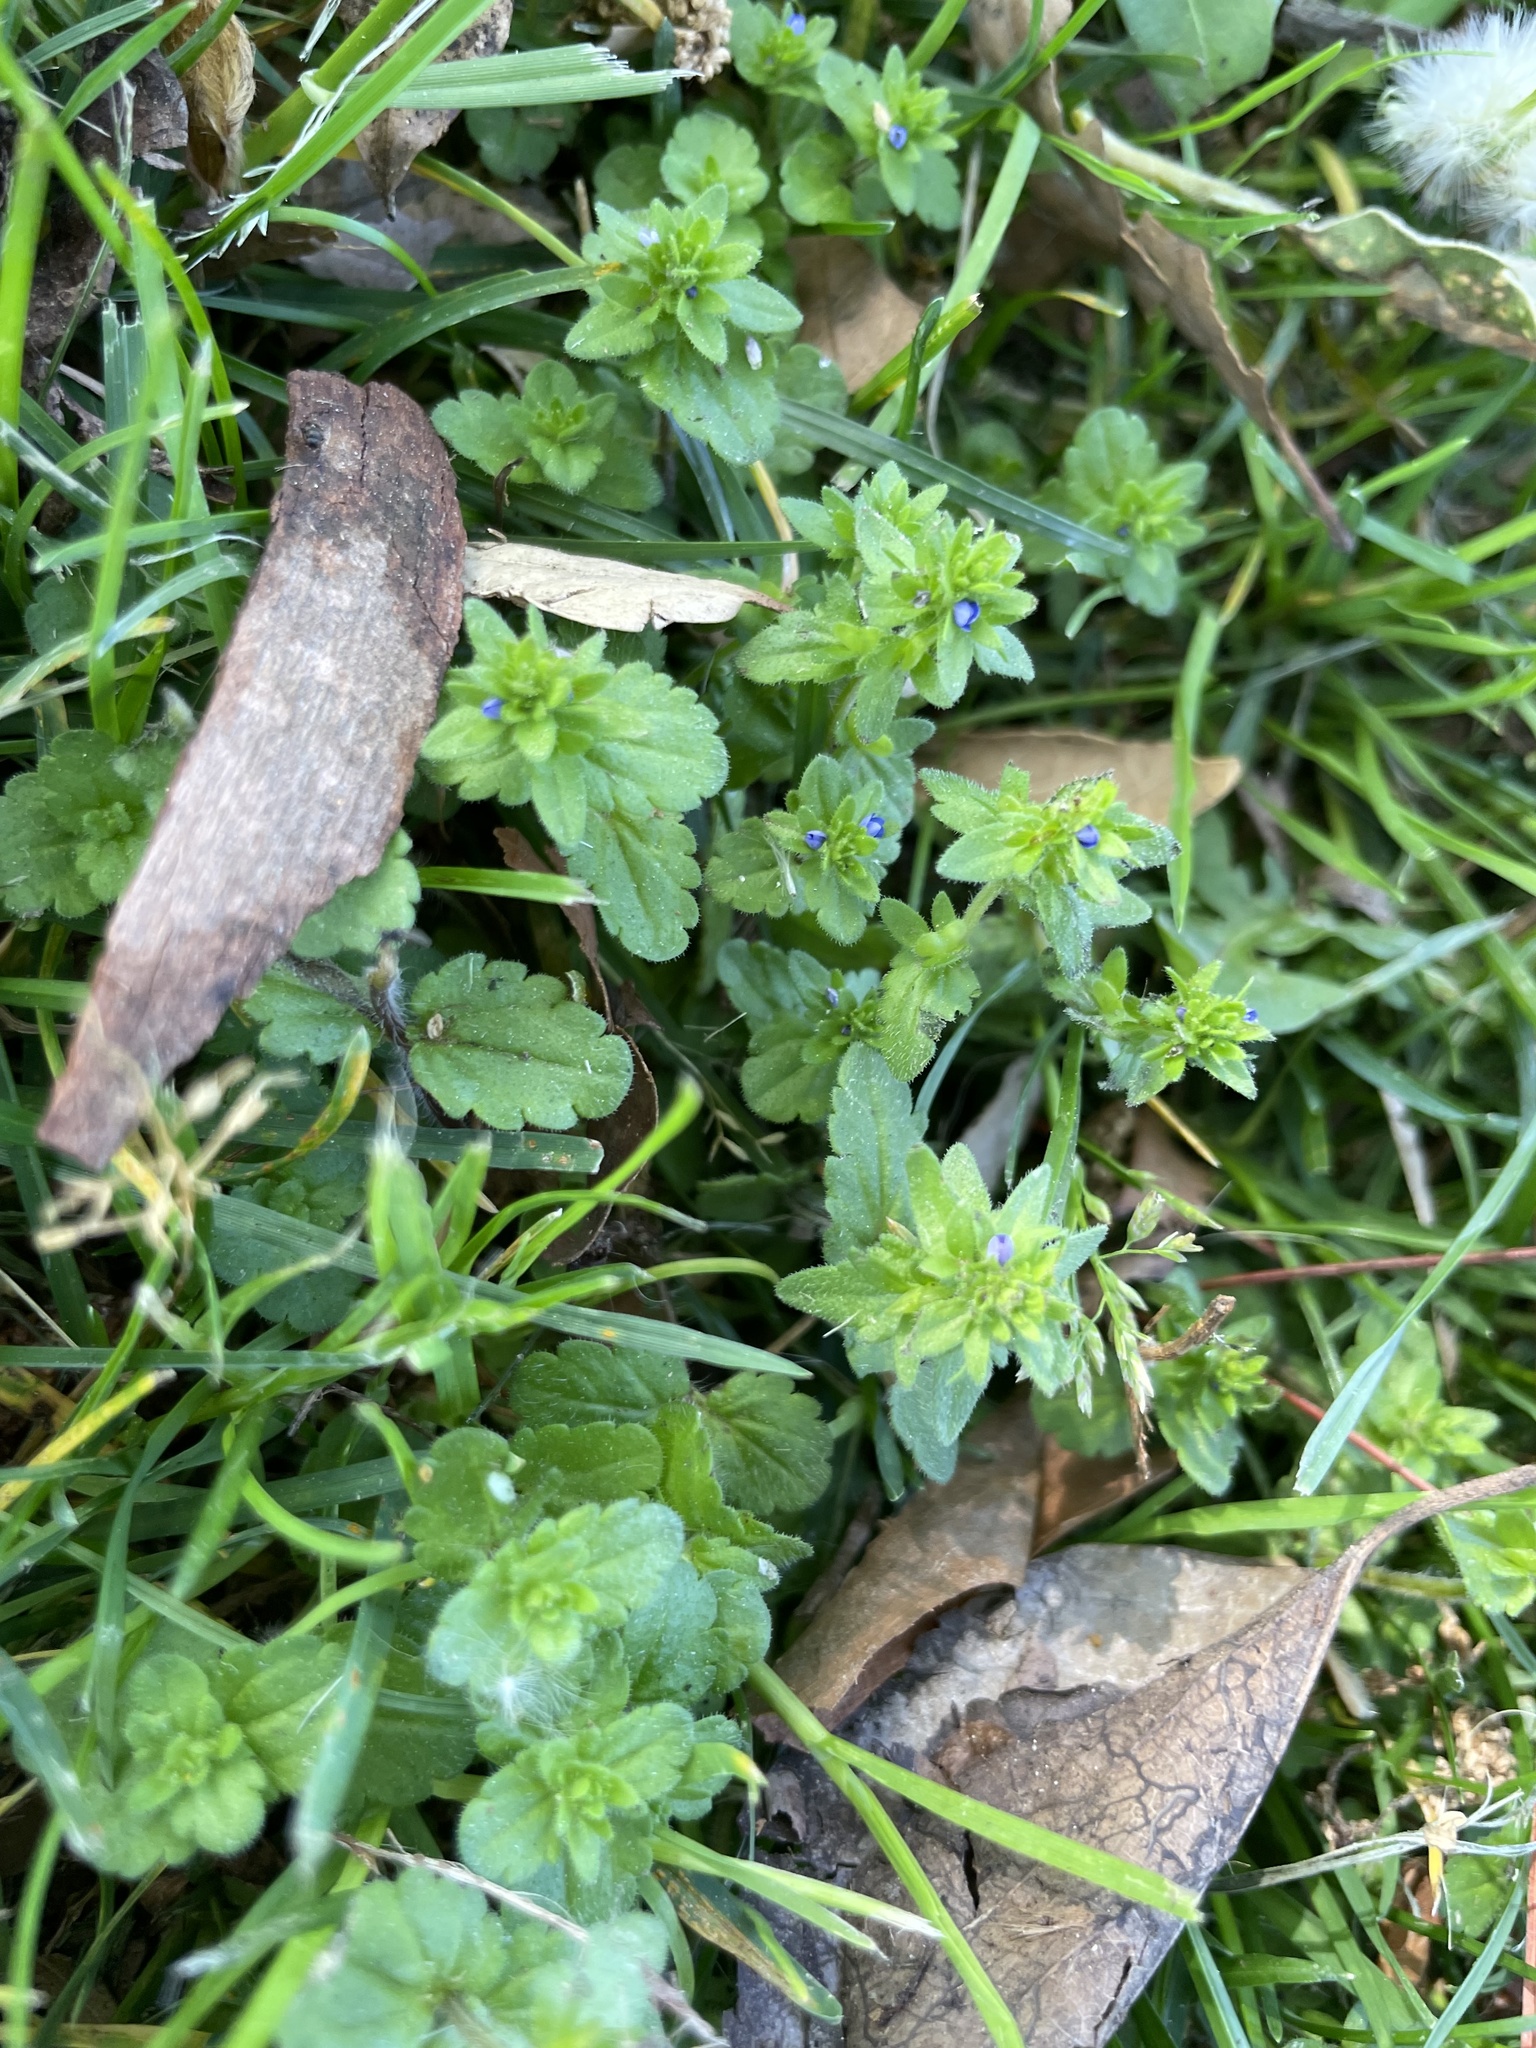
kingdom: Plantae
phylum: Tracheophyta
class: Magnoliopsida
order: Lamiales
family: Plantaginaceae
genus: Veronica
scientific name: Veronica arvensis
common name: Corn speedwell
